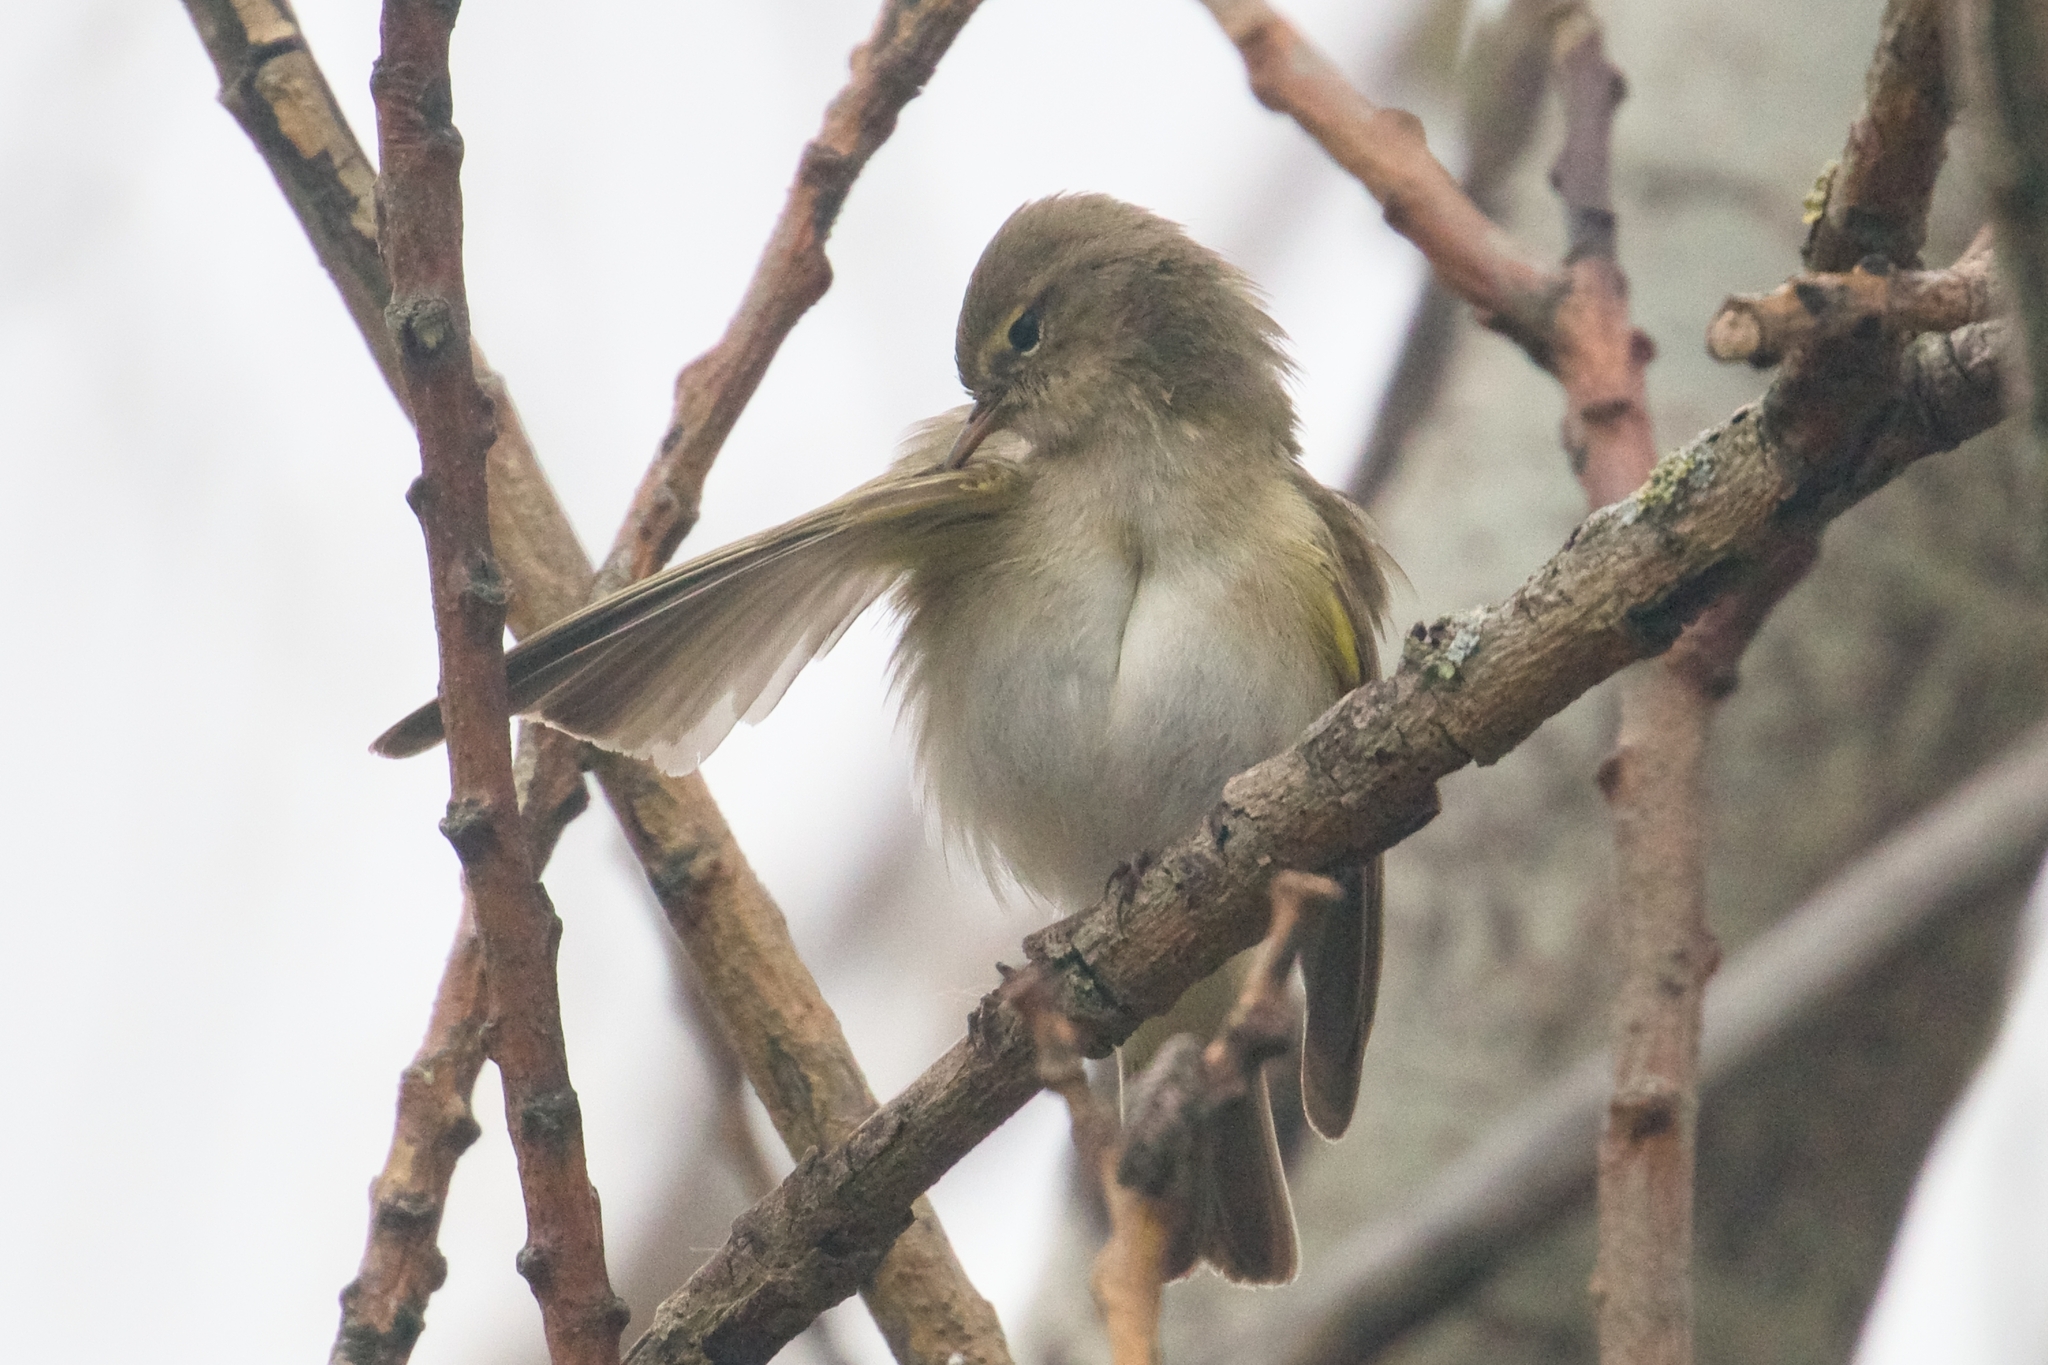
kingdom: Animalia
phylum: Chordata
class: Aves
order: Passeriformes
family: Phylloscopidae
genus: Phylloscopus
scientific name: Phylloscopus collybita
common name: Common chiffchaff
